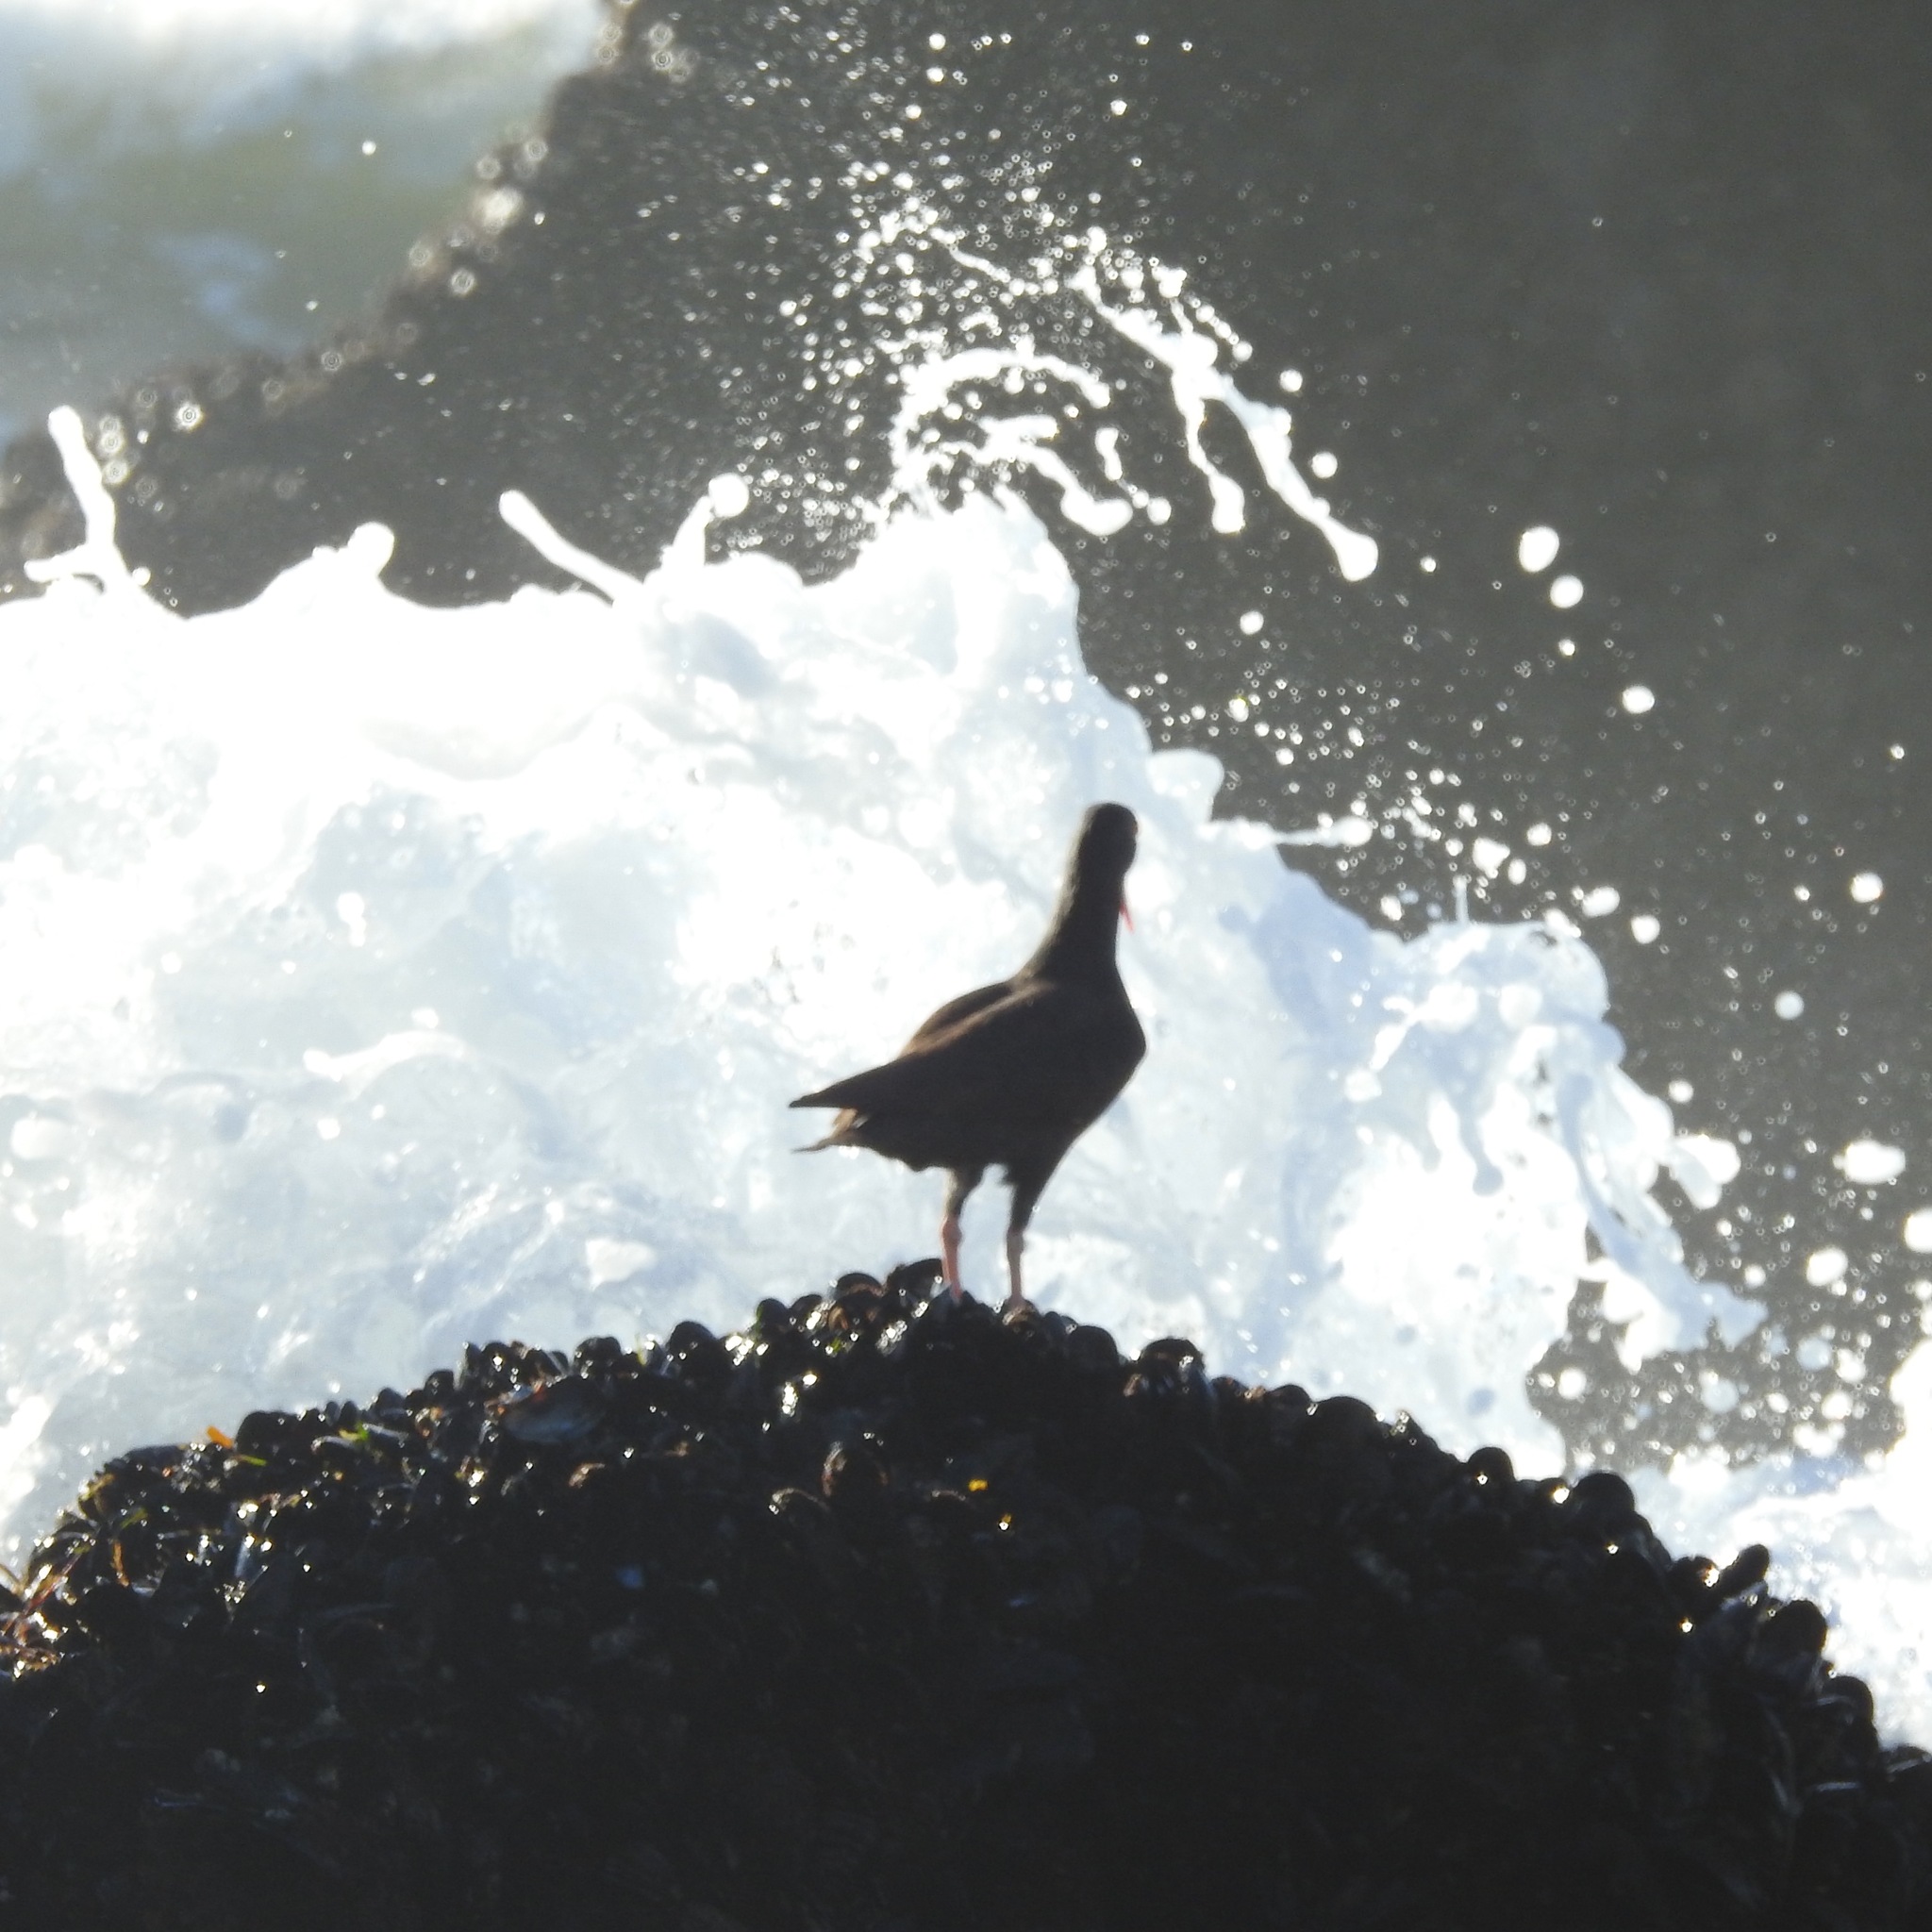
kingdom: Animalia
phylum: Chordata
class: Aves
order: Charadriiformes
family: Haematopodidae
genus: Haematopus
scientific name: Haematopus bachmani
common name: Black oystercatcher
